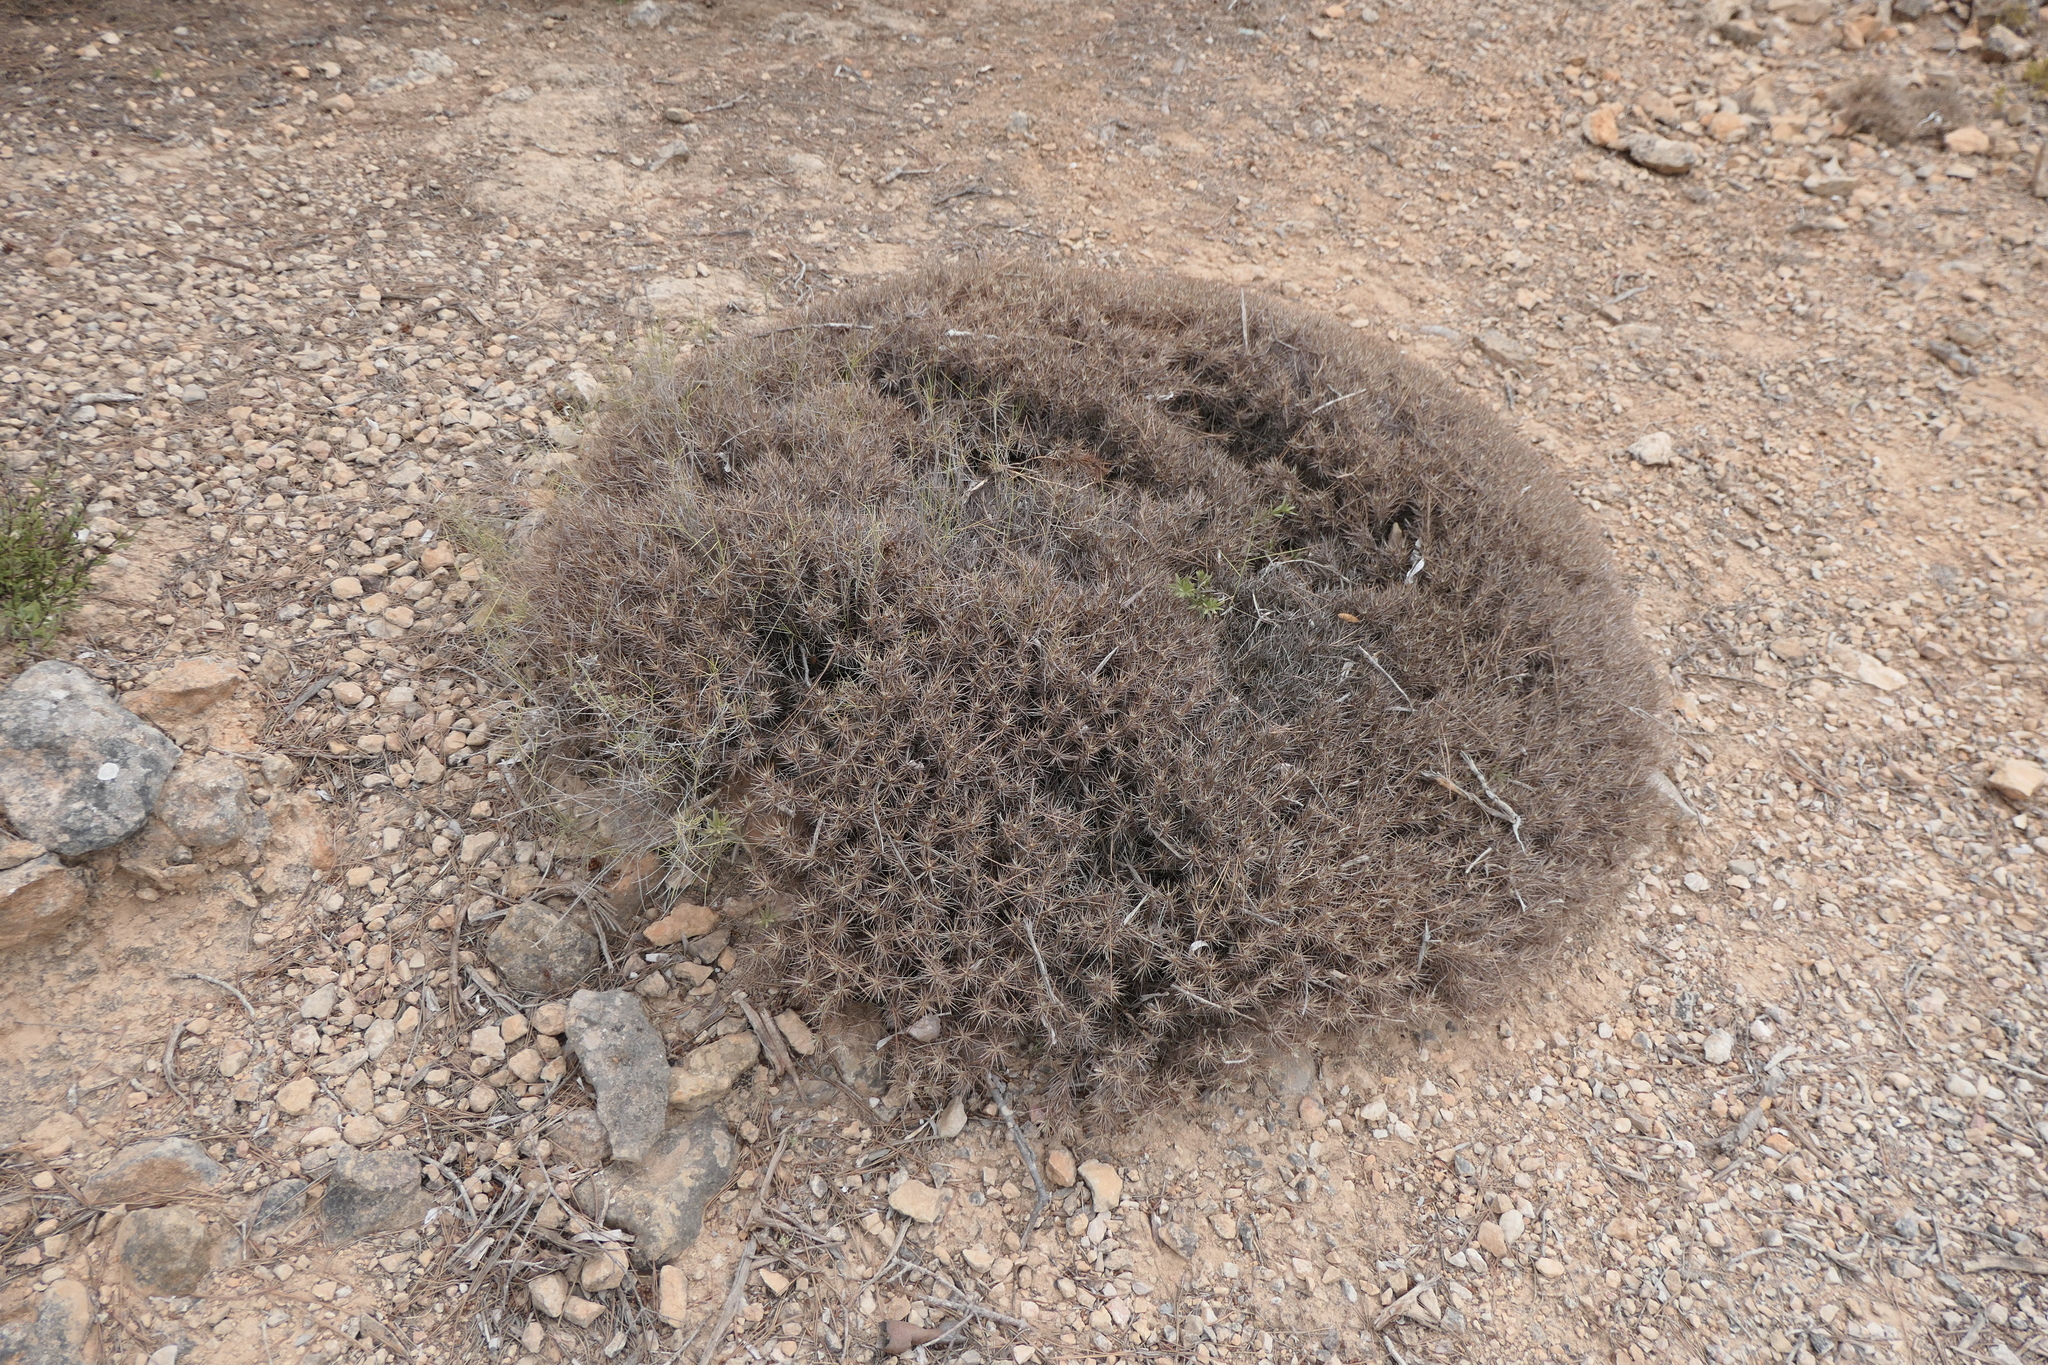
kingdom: Plantae
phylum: Tracheophyta
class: Magnoliopsida
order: Fabales
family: Fabaceae
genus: Astragalus
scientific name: Astragalus balearicus
